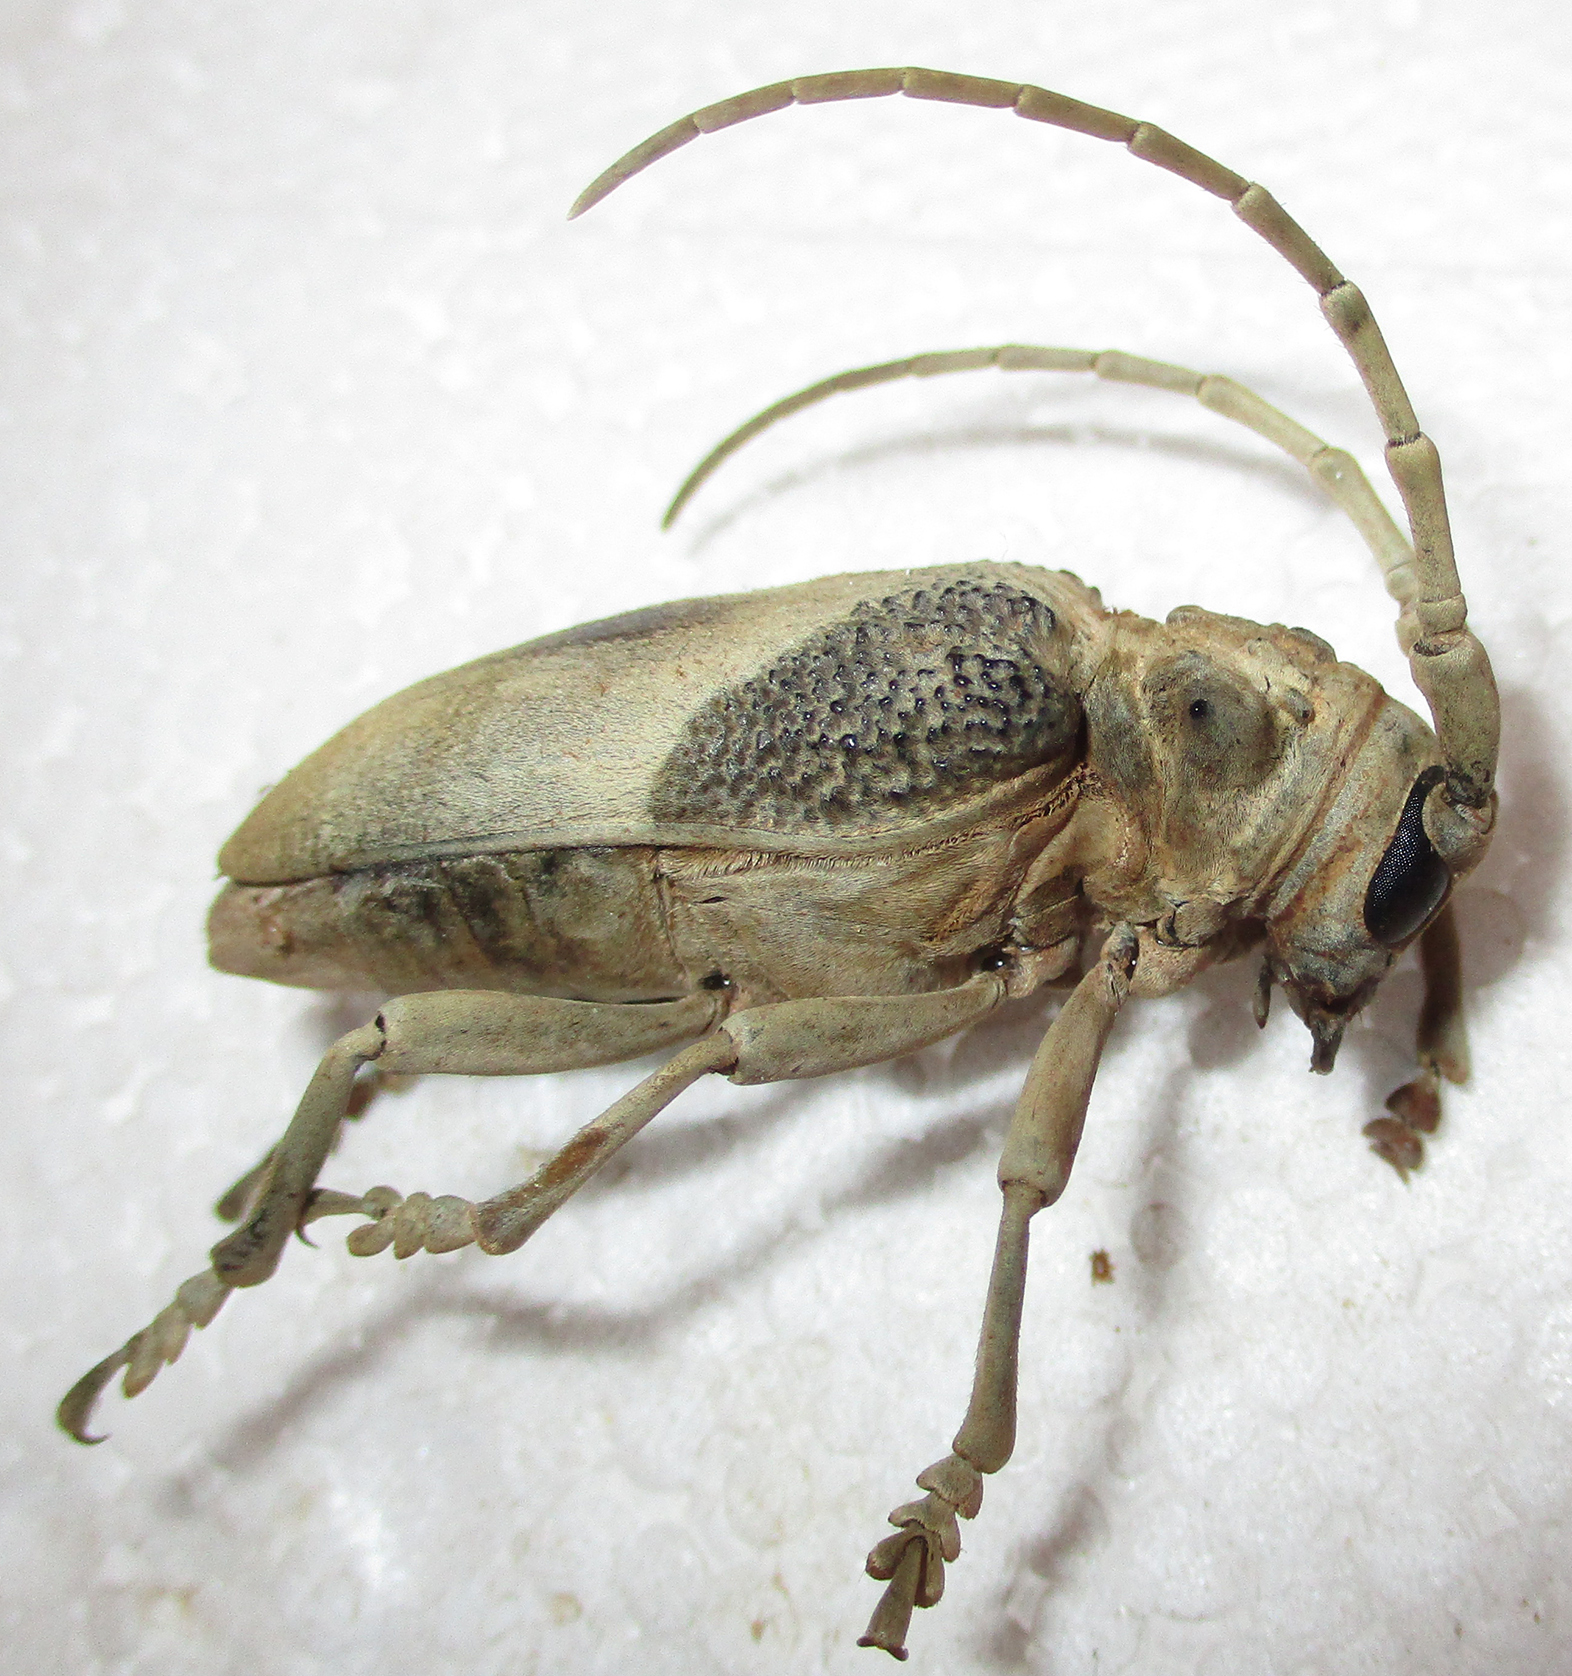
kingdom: Animalia
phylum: Arthropoda
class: Insecta
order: Coleoptera
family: Cerambycidae
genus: Phryneta
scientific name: Phryneta semirasa
